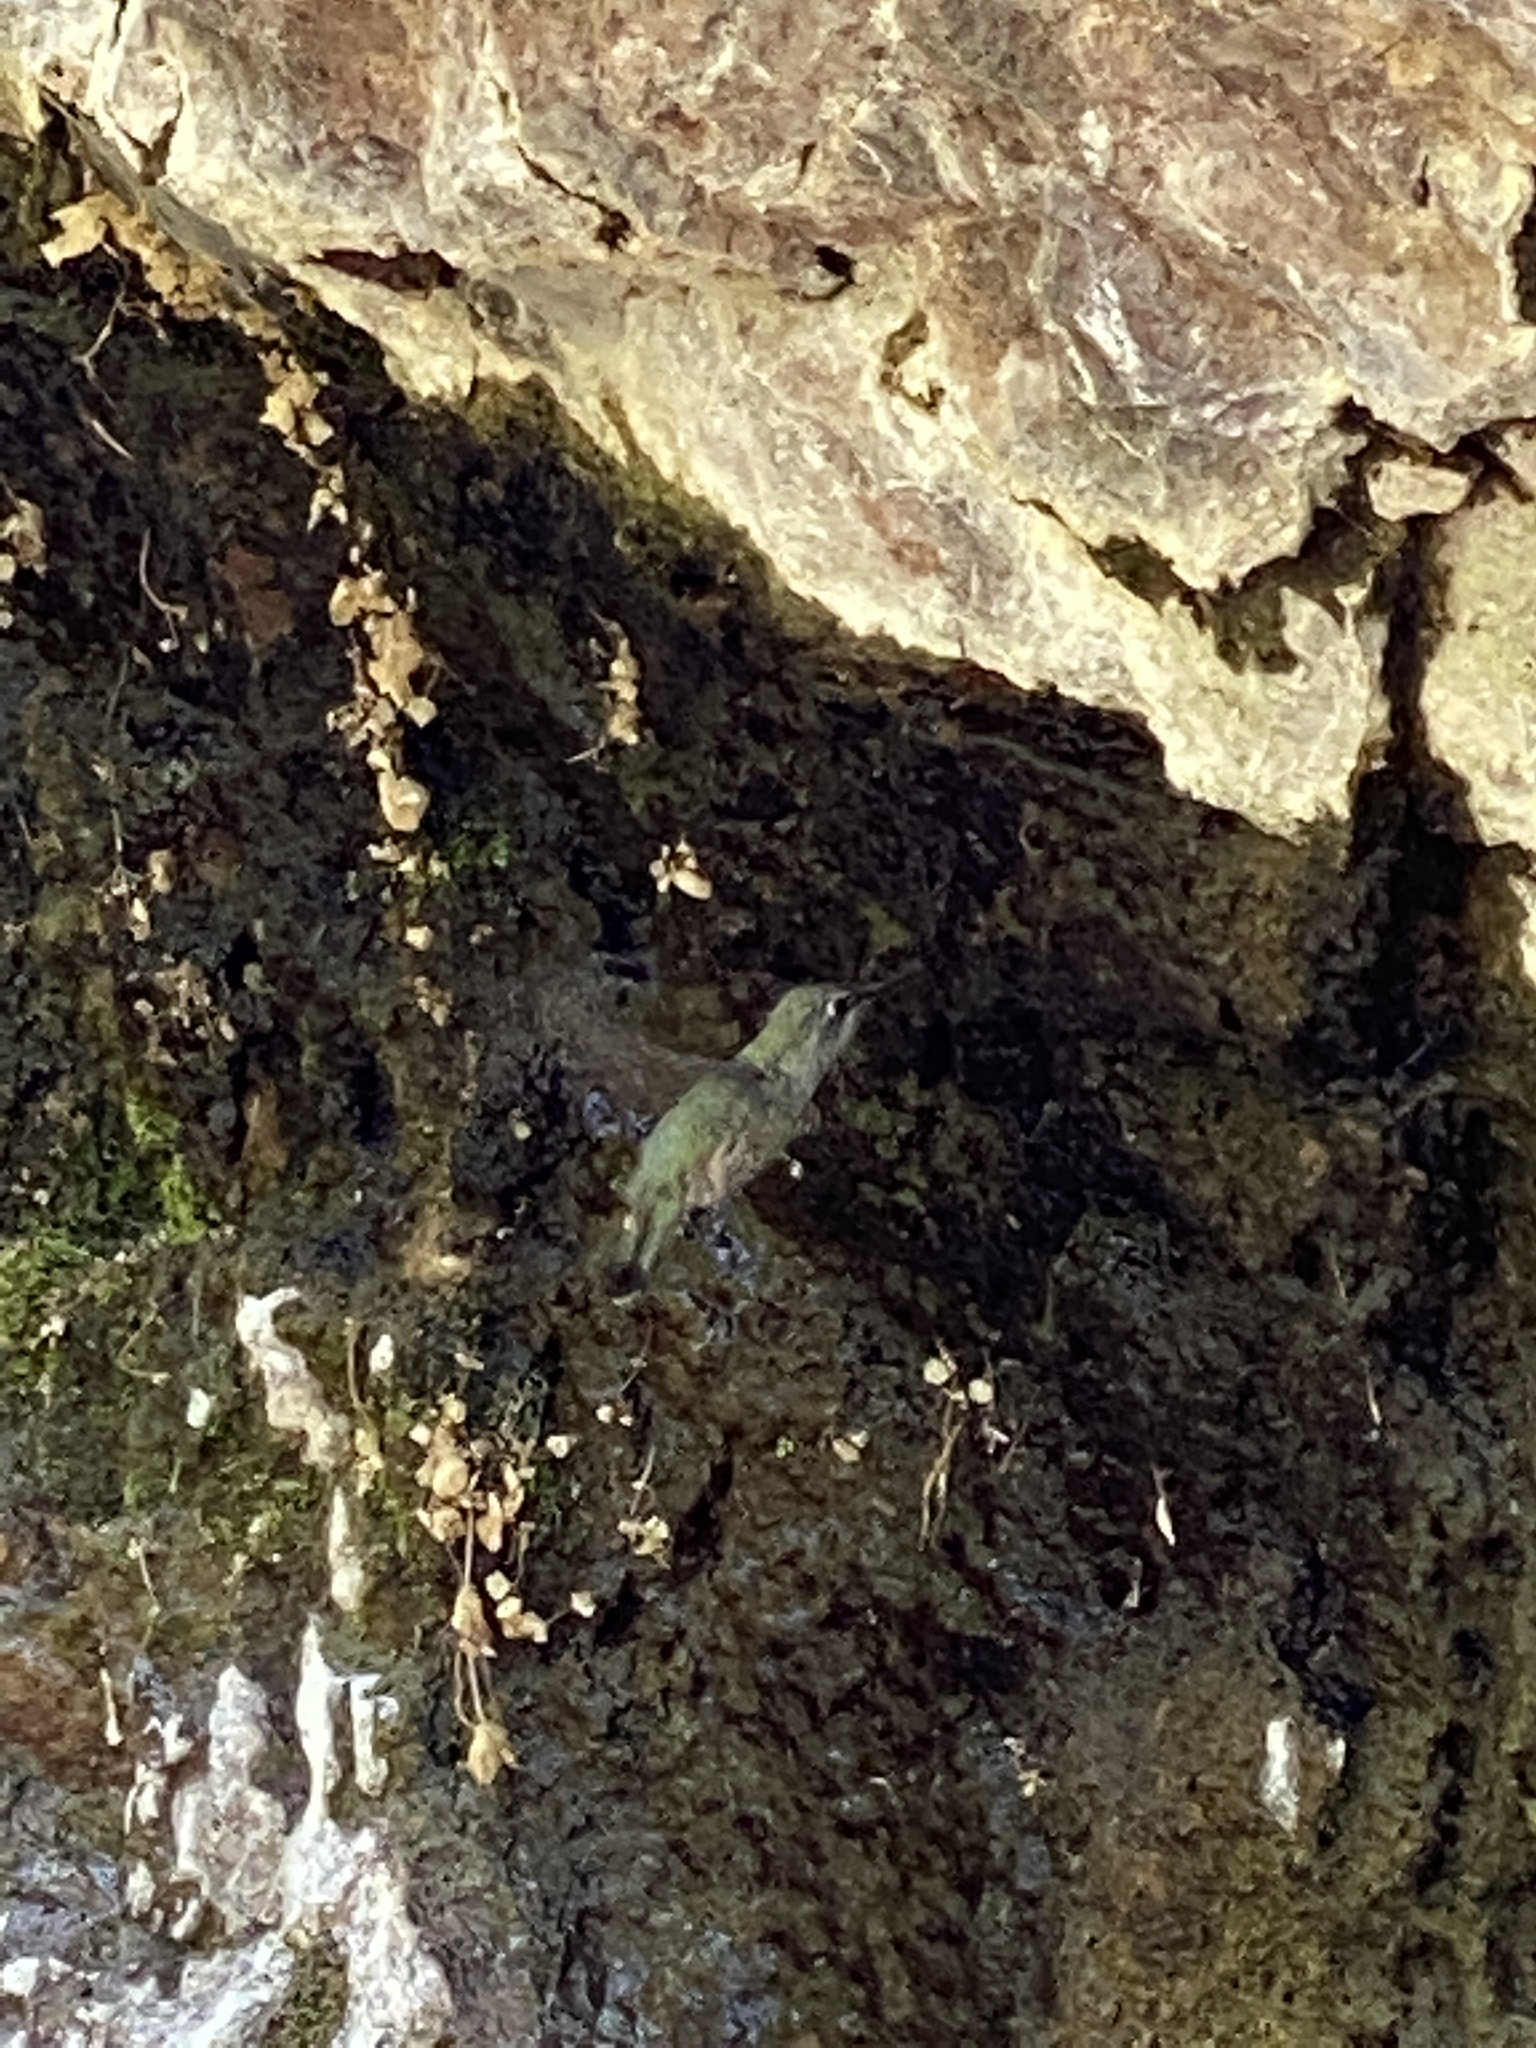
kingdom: Animalia
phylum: Chordata
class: Aves
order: Apodiformes
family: Trochilidae
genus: Calypte
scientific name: Calypte anna
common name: Anna's hummingbird
